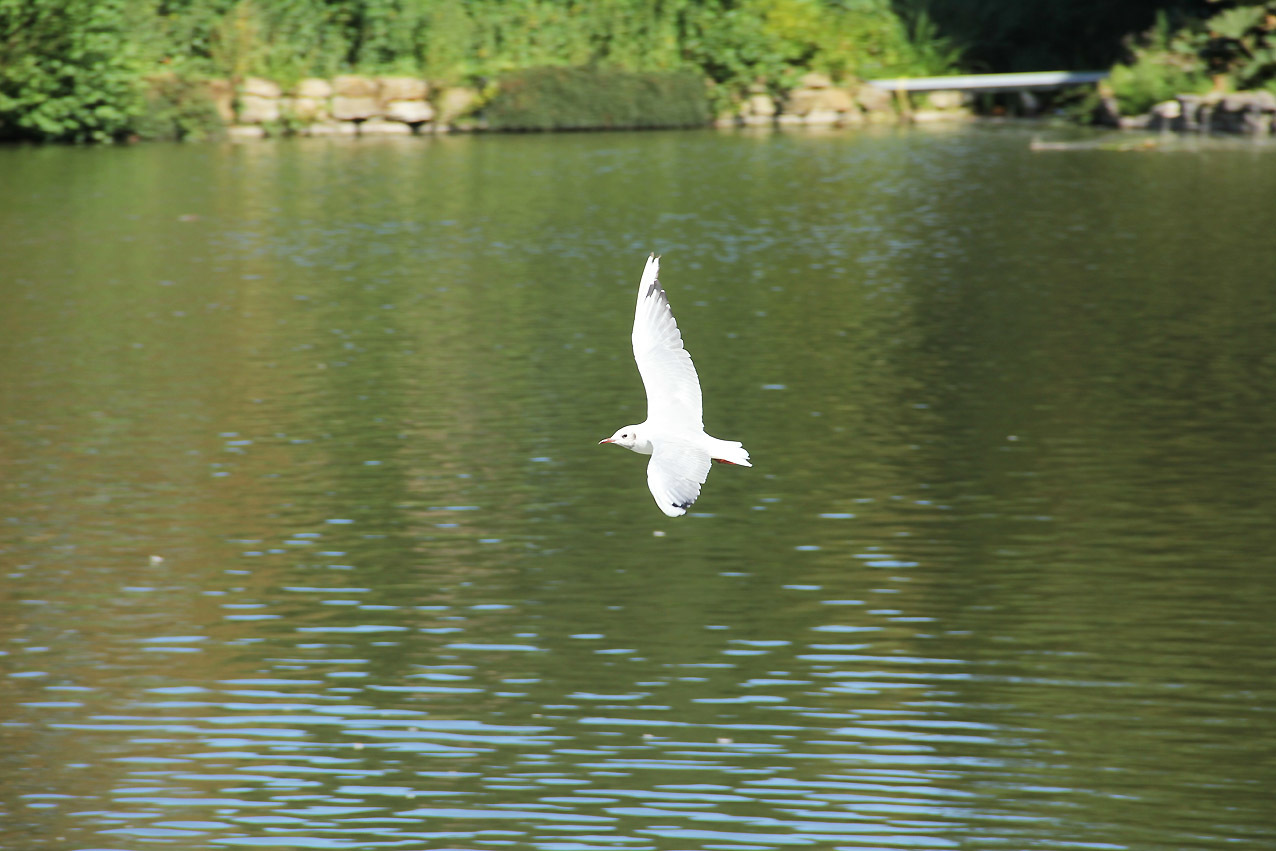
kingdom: Animalia
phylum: Chordata
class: Aves
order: Charadriiformes
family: Laridae
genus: Chroicocephalus
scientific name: Chroicocephalus ridibundus
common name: Black-headed gull
